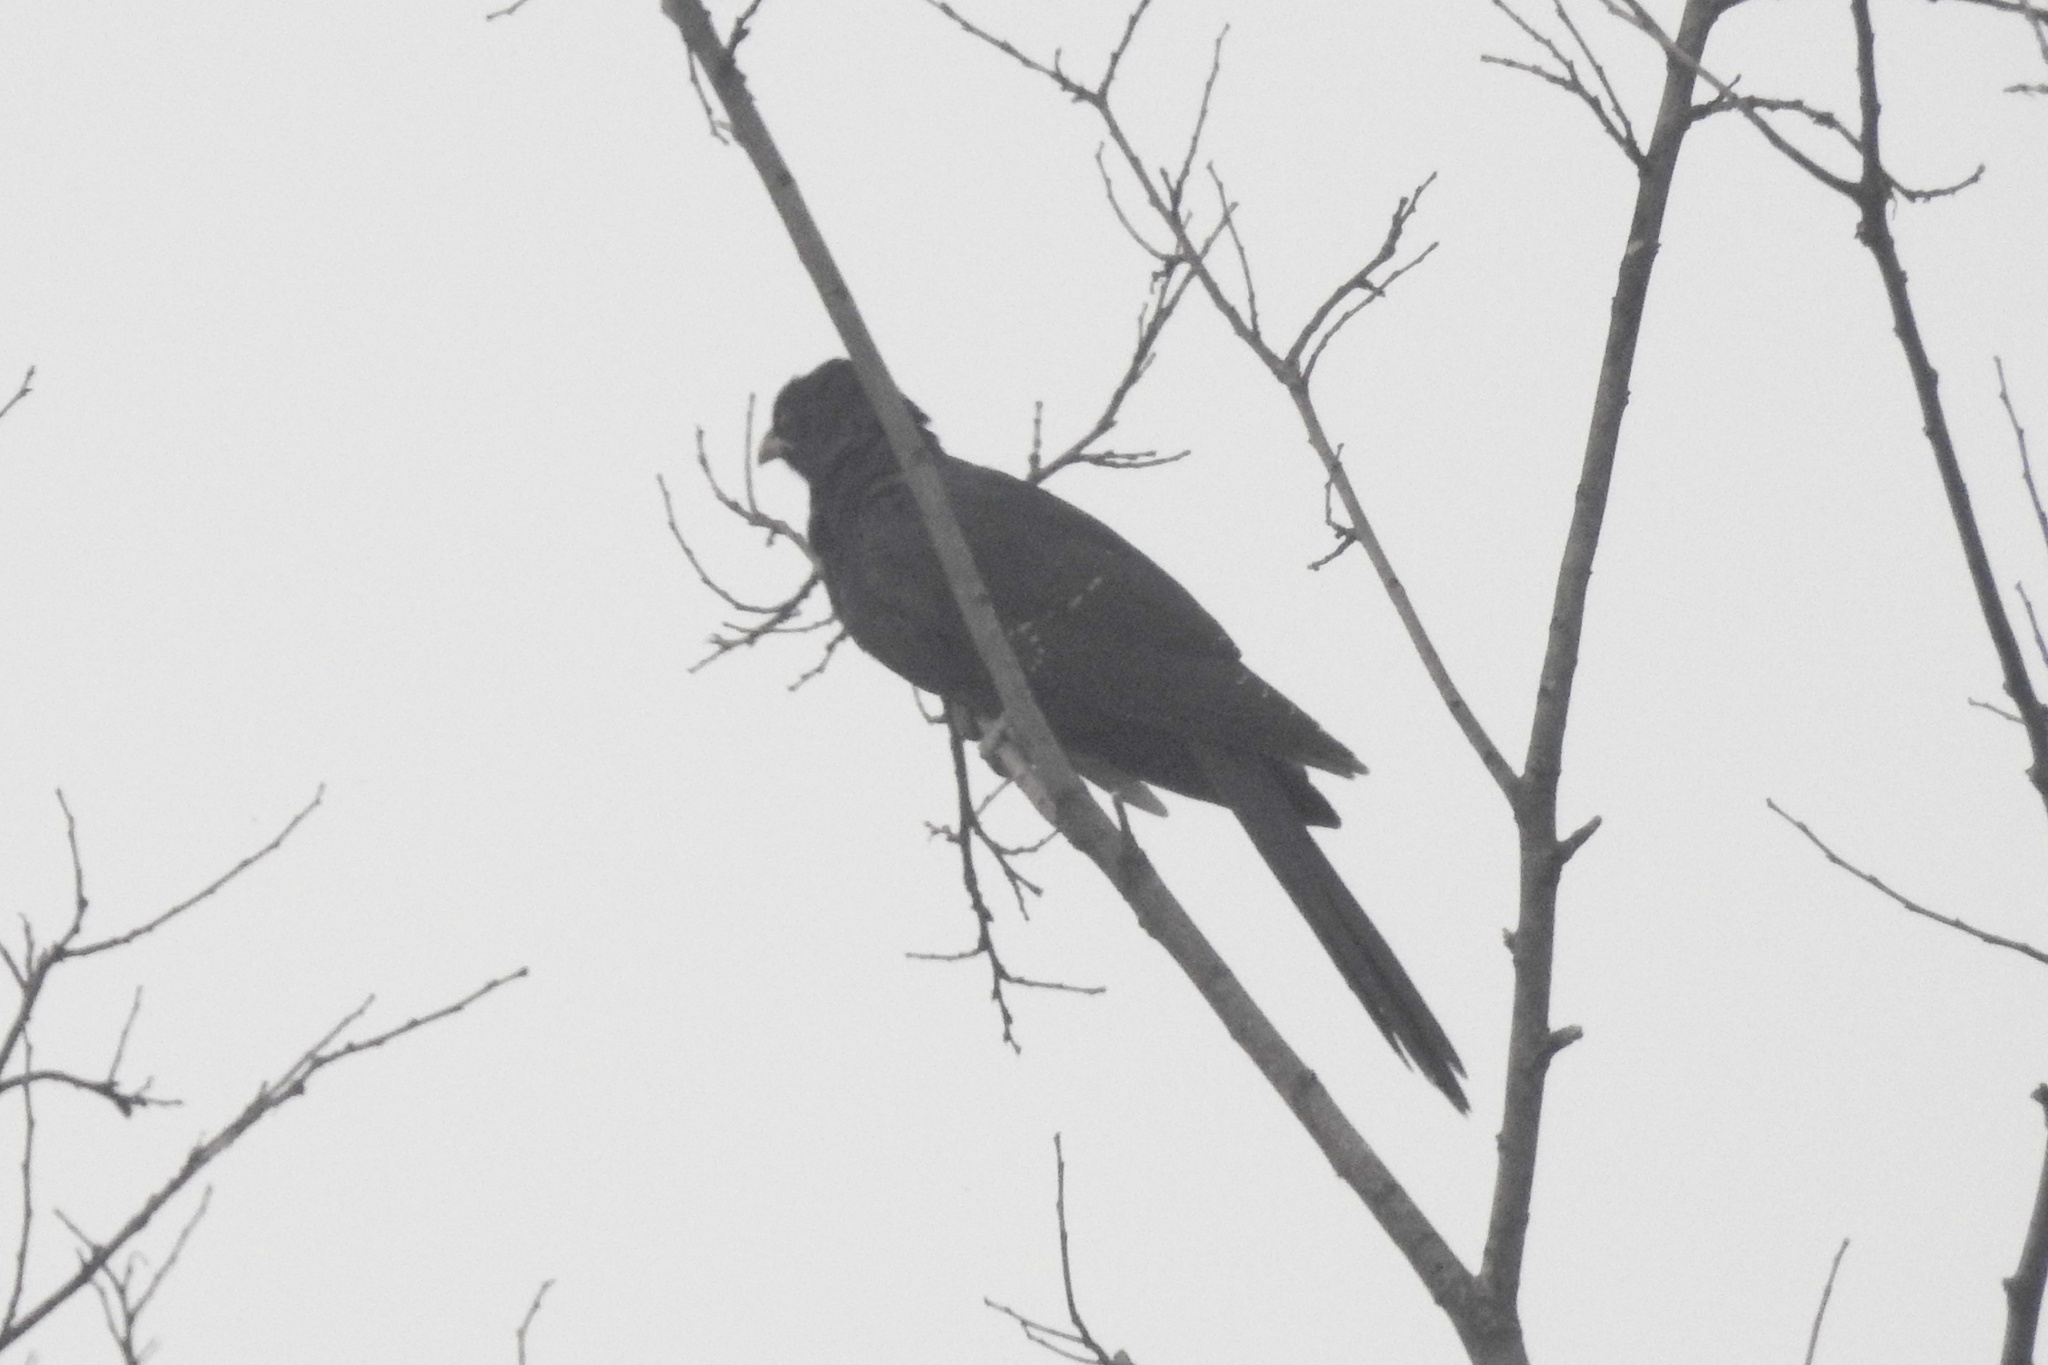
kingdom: Animalia
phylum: Chordata
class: Aves
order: Cuculiformes
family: Cuculidae
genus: Eudynamys
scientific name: Eudynamys scolopaceus
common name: Asian koel
